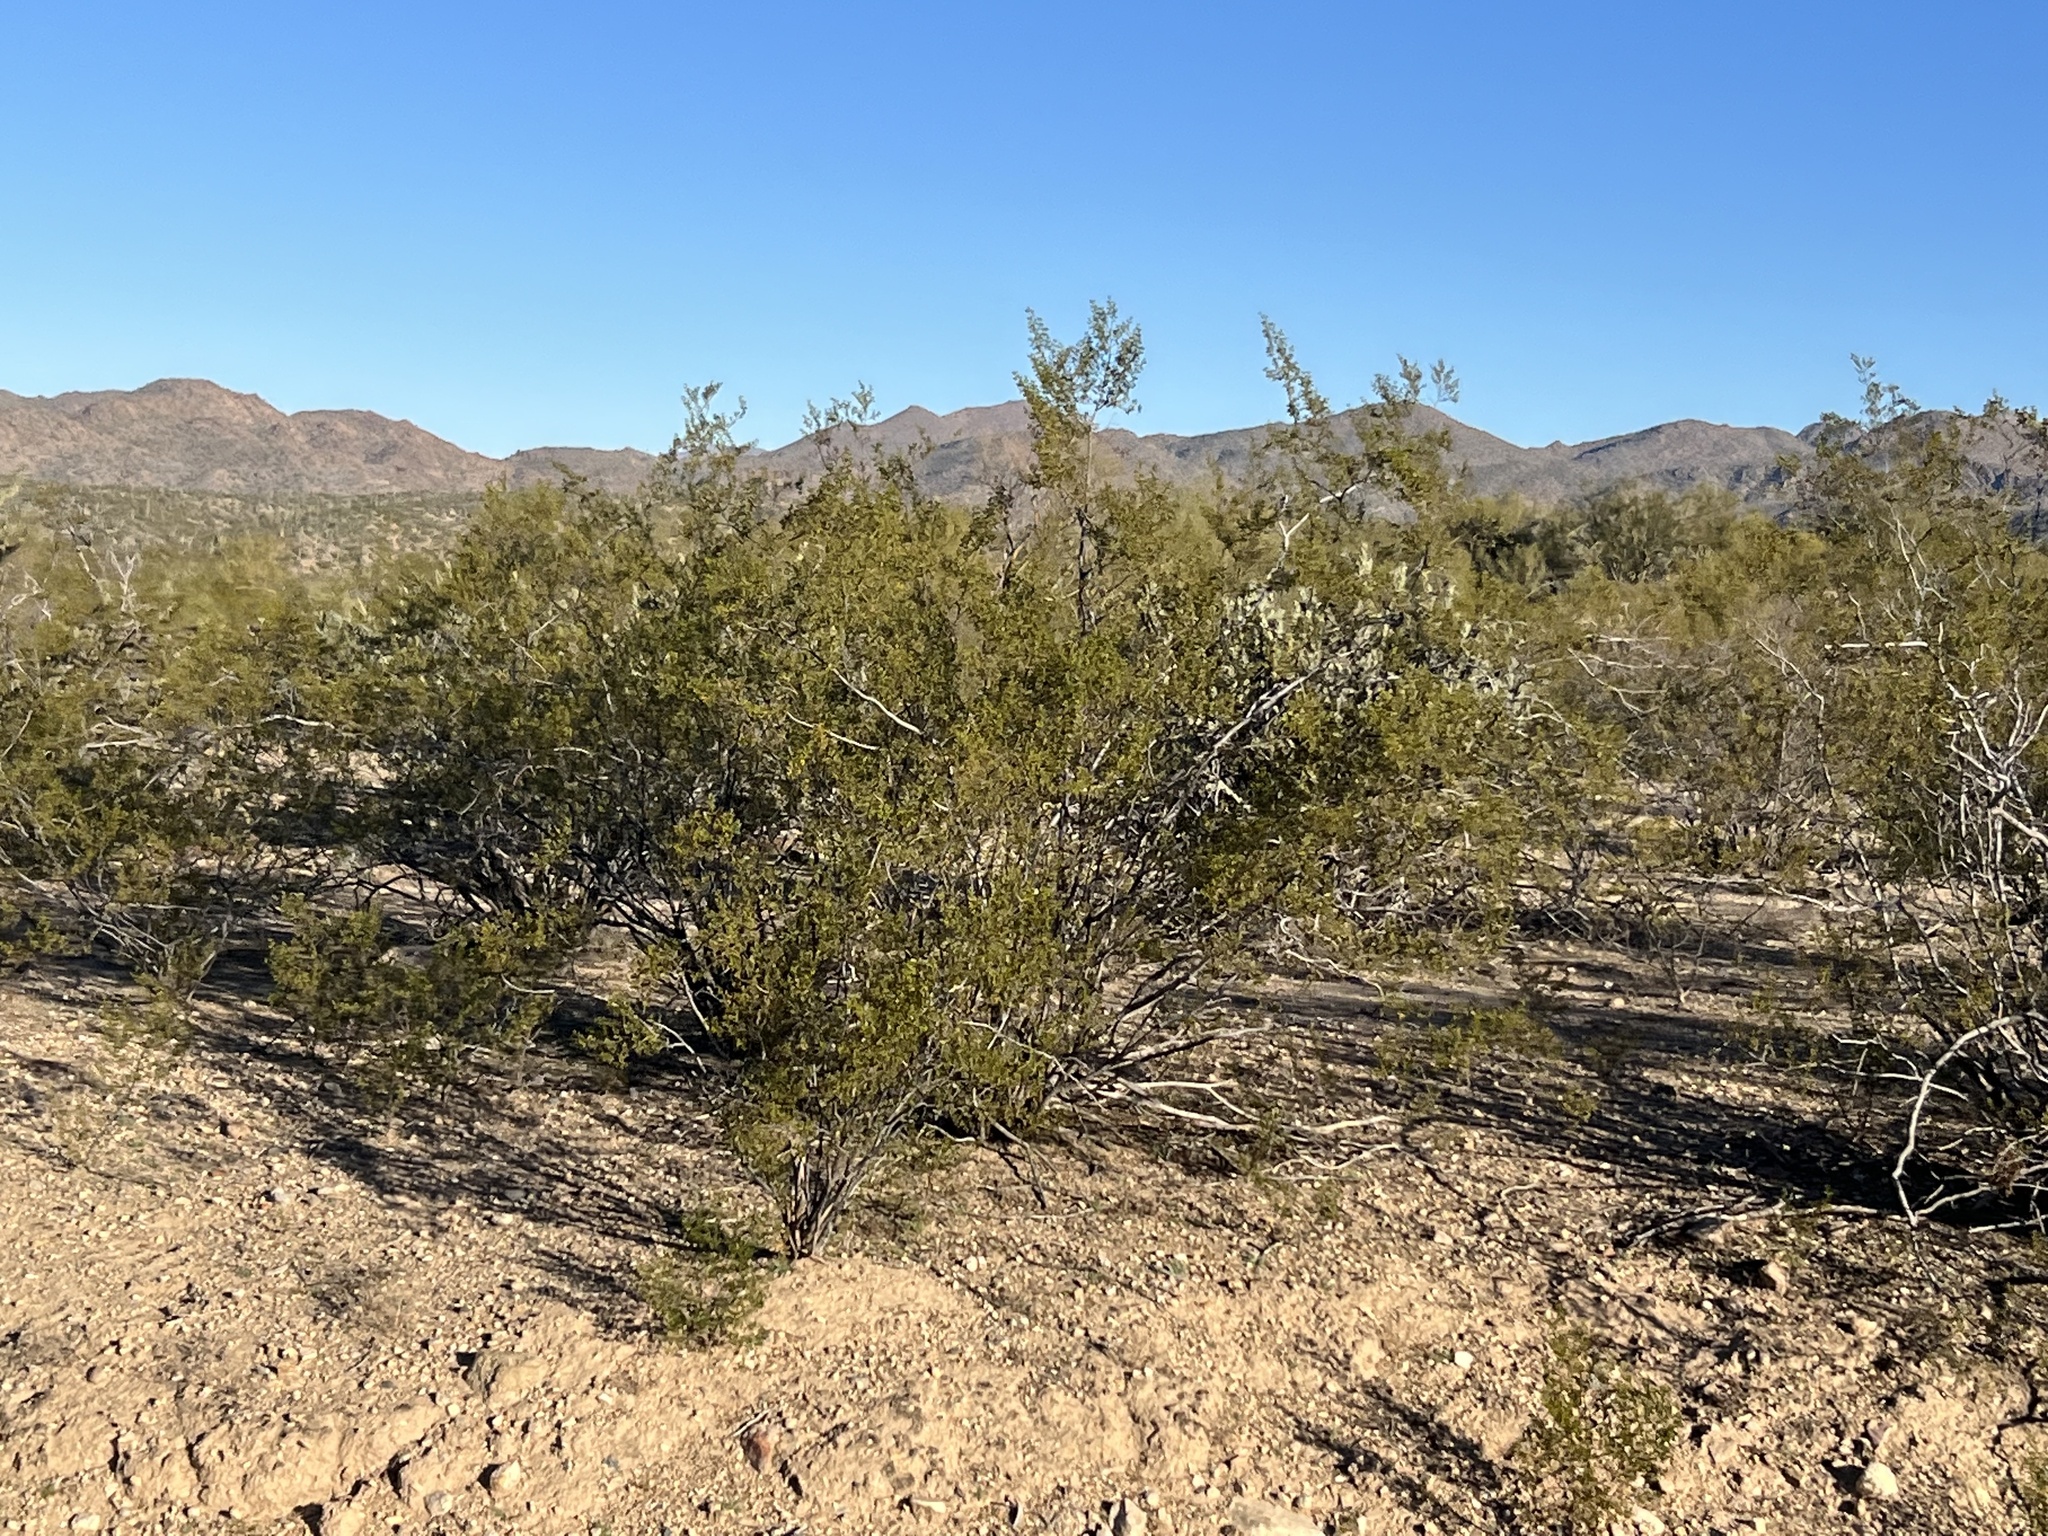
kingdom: Plantae
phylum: Tracheophyta
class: Magnoliopsida
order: Zygophyllales
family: Zygophyllaceae
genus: Larrea
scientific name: Larrea tridentata
